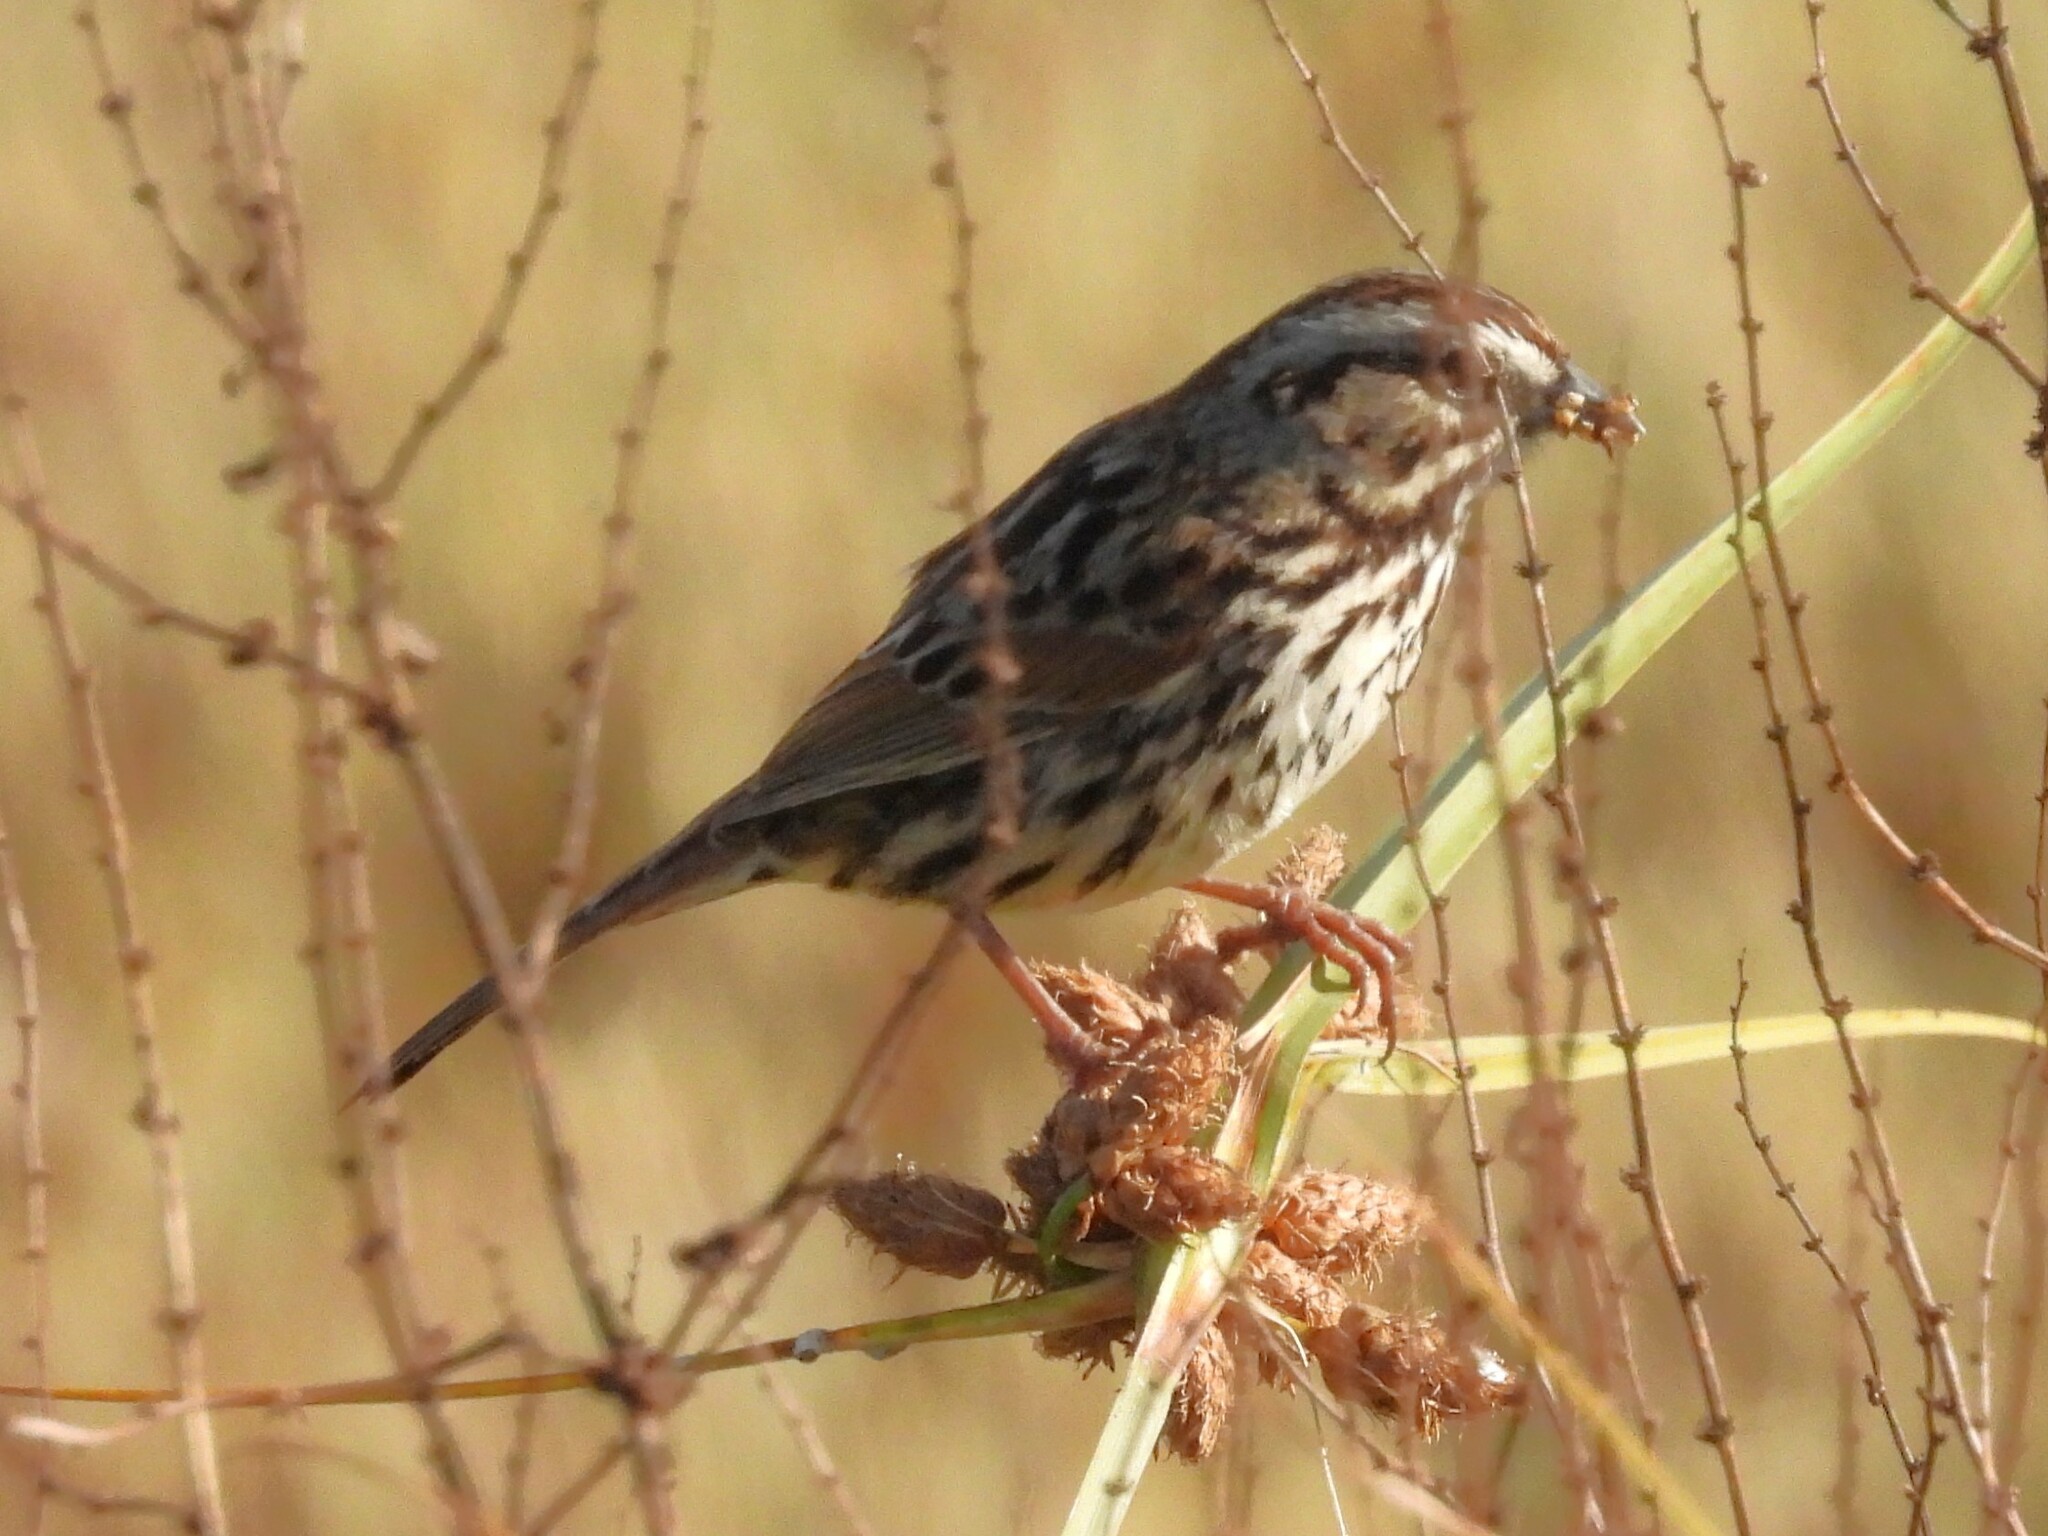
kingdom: Animalia
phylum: Chordata
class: Aves
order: Passeriformes
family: Passerellidae
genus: Melospiza
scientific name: Melospiza melodia
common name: Song sparrow
